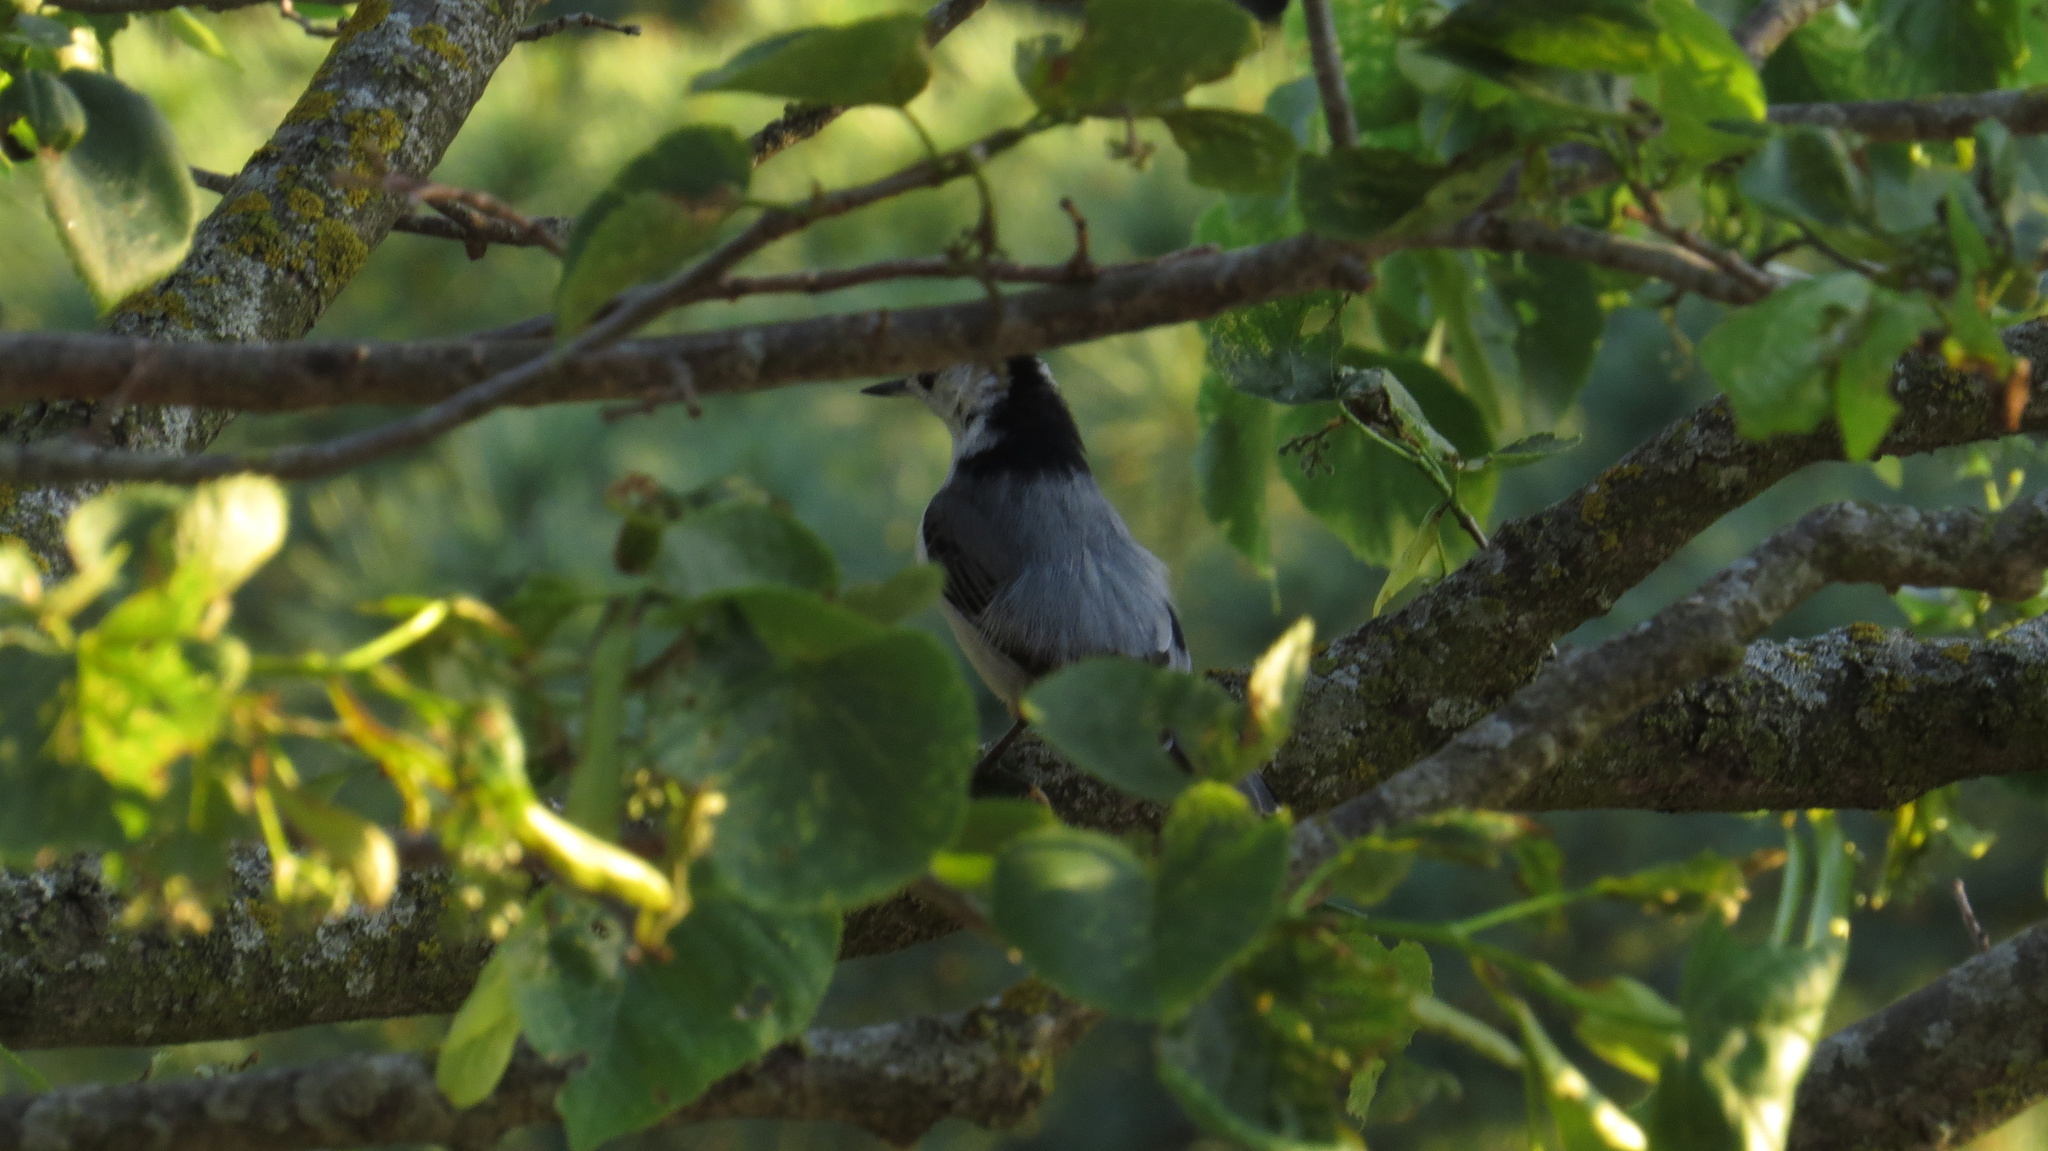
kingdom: Animalia
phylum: Chordata
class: Aves
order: Passeriformes
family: Sittidae
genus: Sitta
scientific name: Sitta carolinensis
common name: White-breasted nuthatch
